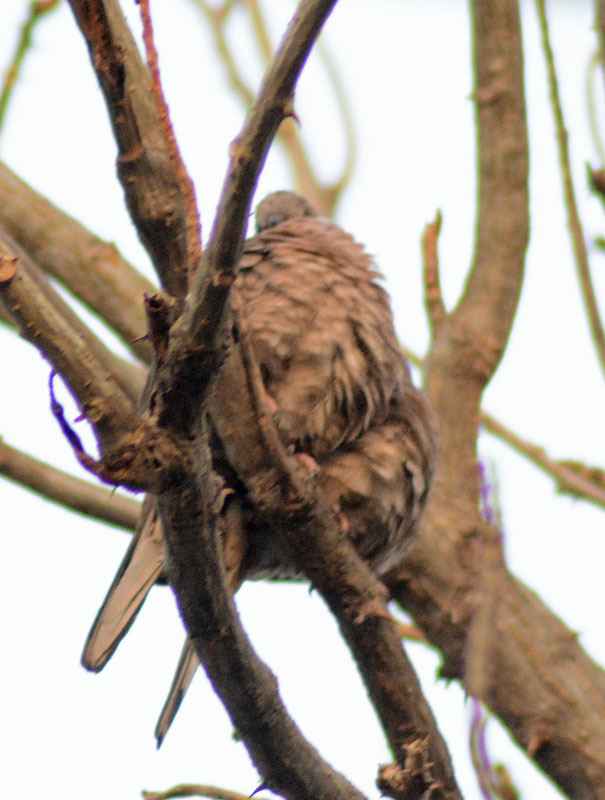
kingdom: Animalia
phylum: Chordata
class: Aves
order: Columbiformes
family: Columbidae
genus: Columbina
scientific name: Columbina inca
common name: Inca dove
